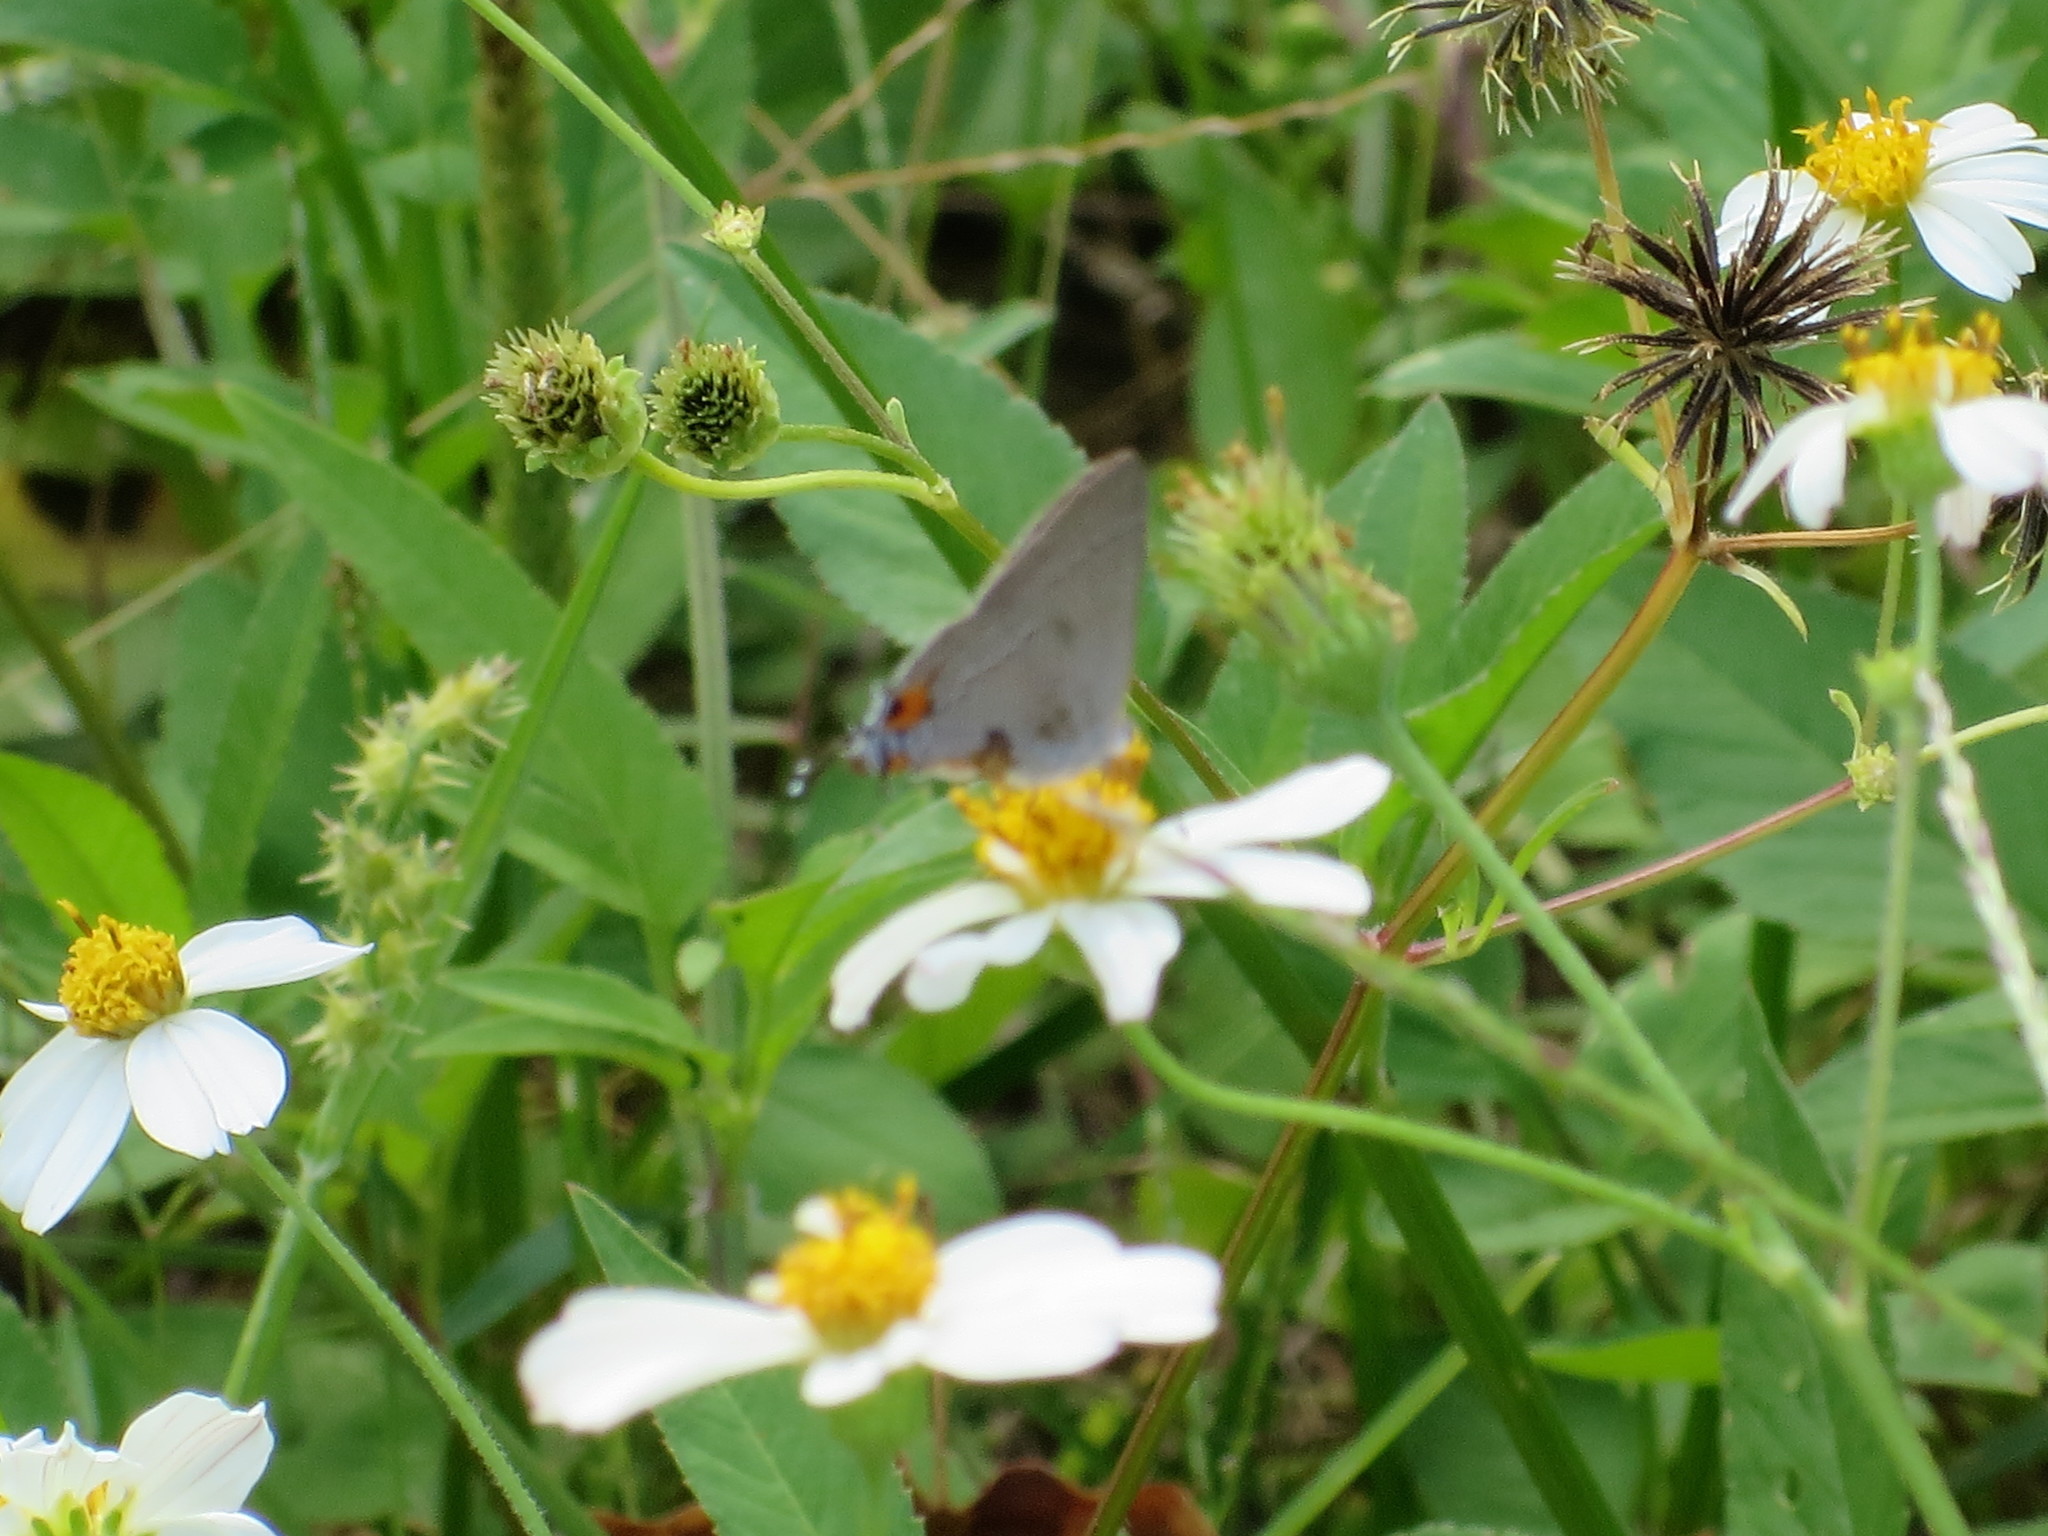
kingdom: Animalia
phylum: Arthropoda
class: Insecta
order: Lepidoptera
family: Lycaenidae
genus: Strymon
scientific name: Strymon melinus
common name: Gray hairstreak
